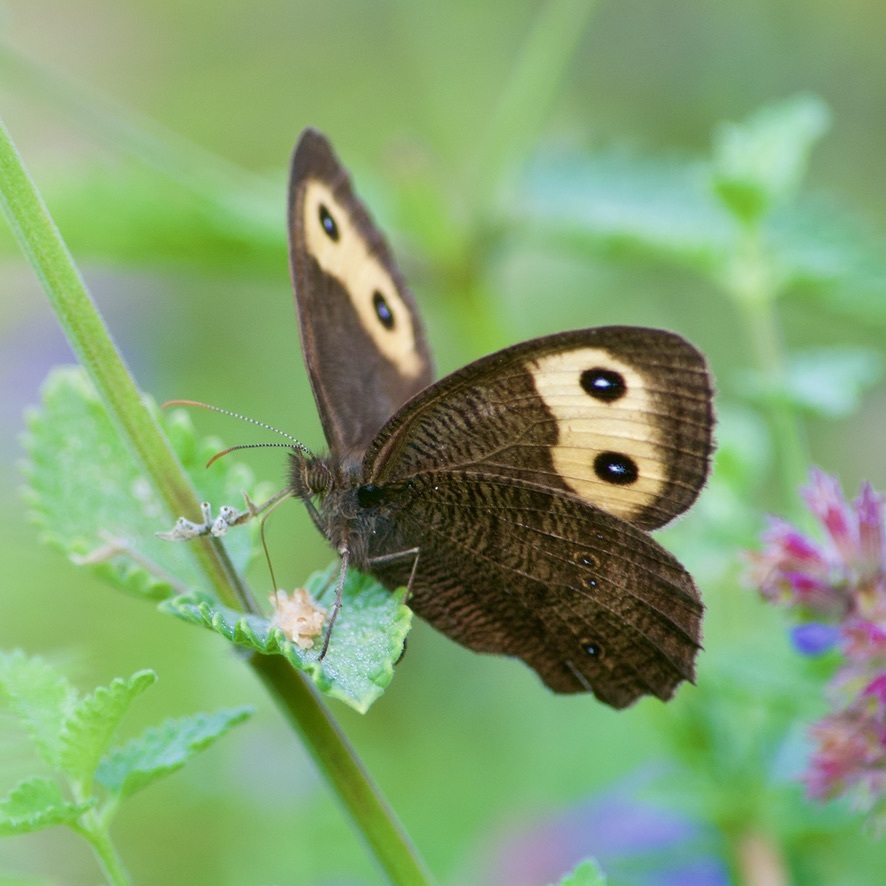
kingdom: Animalia
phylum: Arthropoda
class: Insecta
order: Lepidoptera
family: Nymphalidae
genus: Cercyonis
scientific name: Cercyonis pegala
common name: Common wood-nymph
